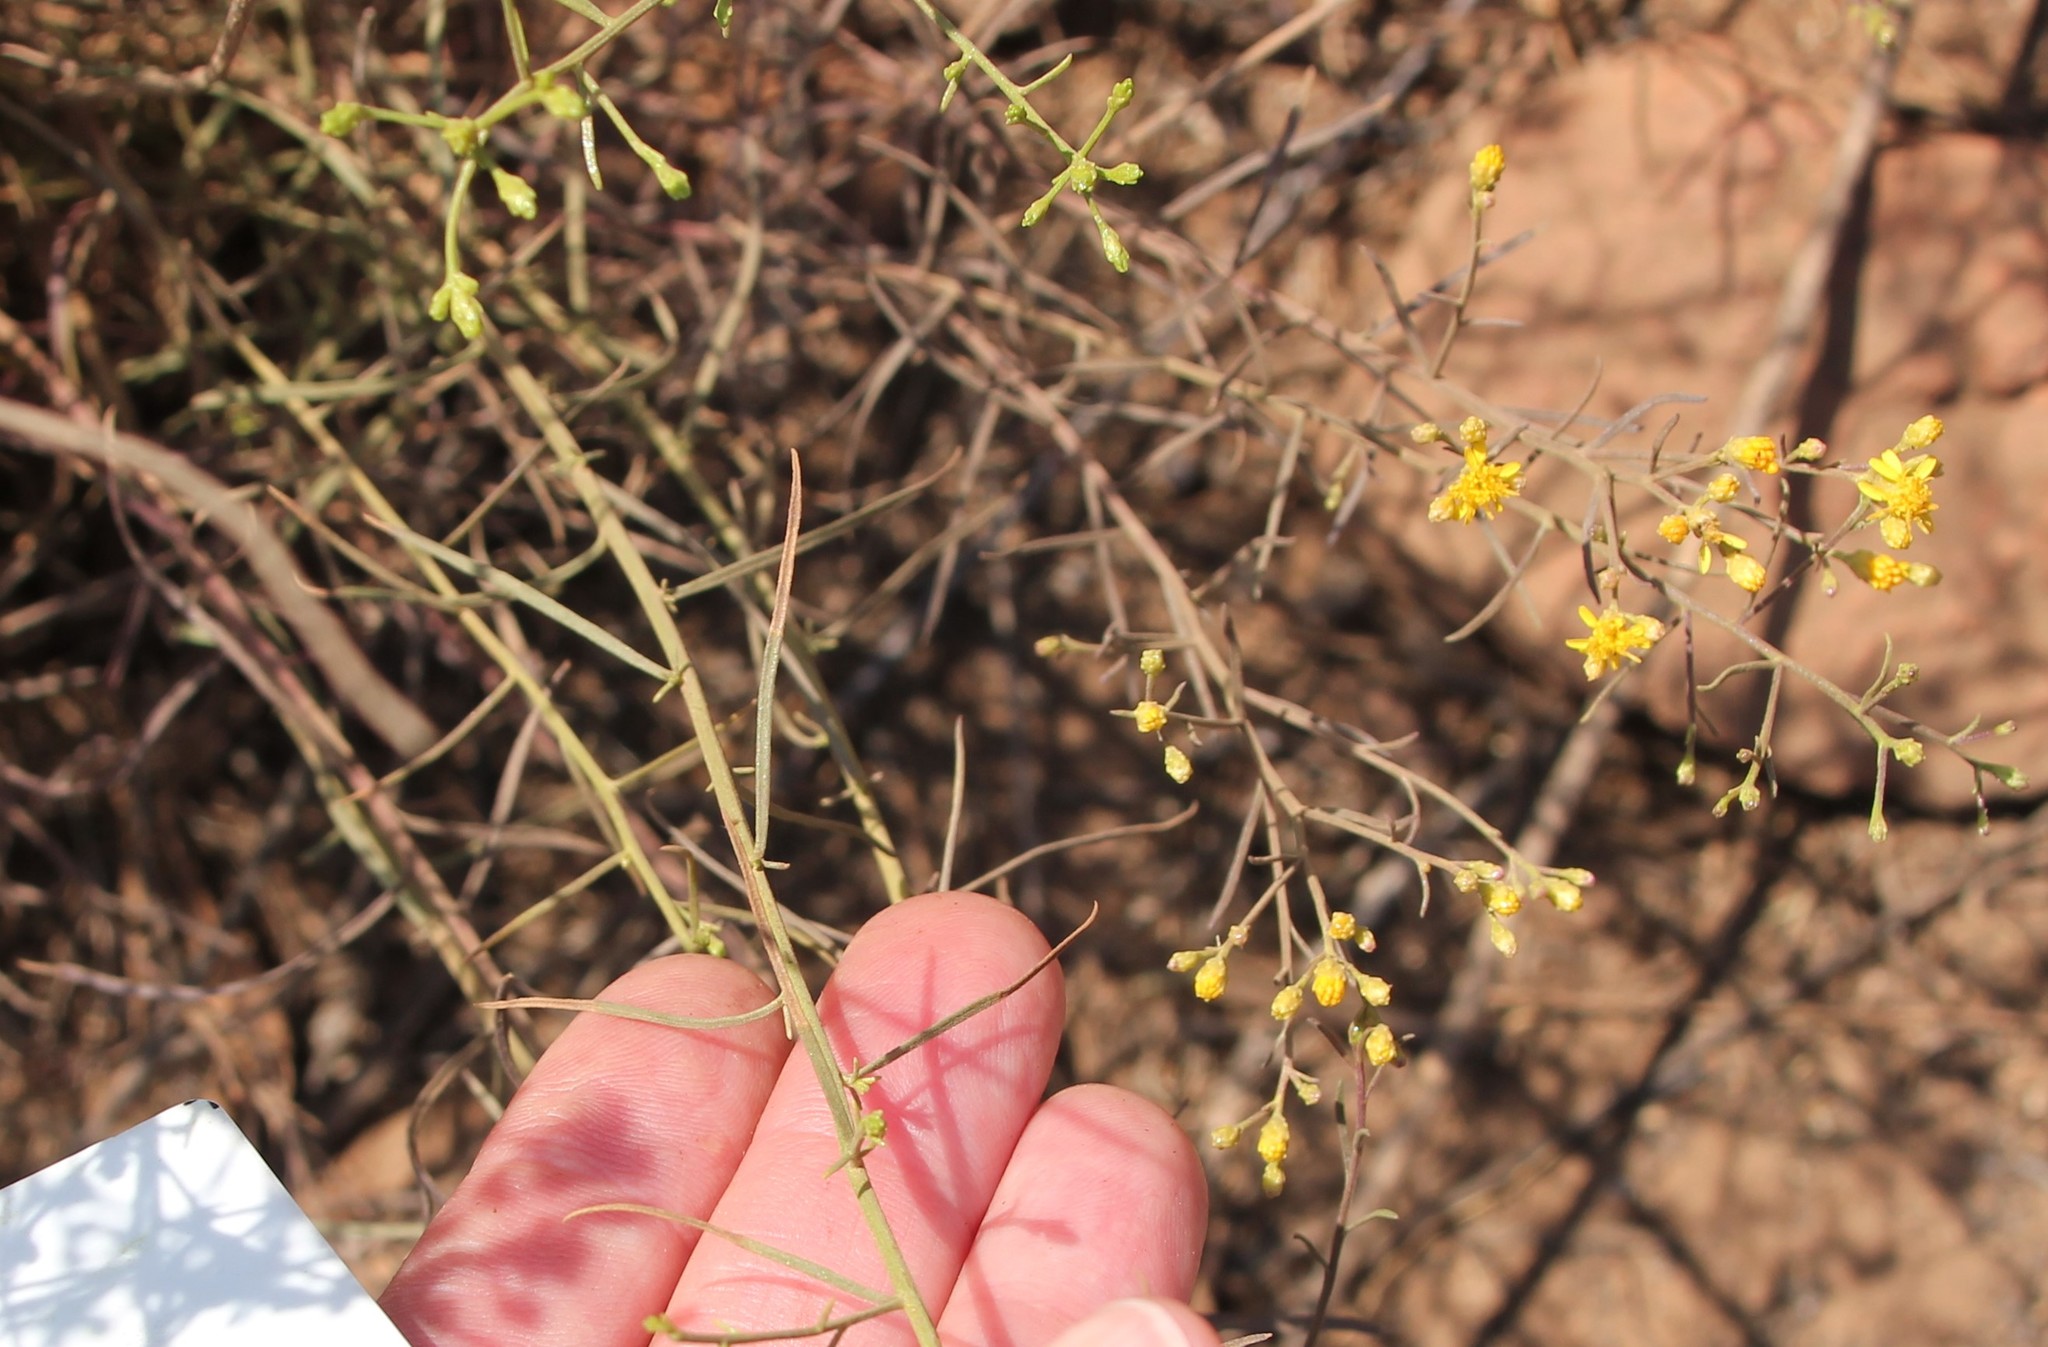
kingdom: Plantae
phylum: Tracheophyta
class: Magnoliopsida
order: Asterales
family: Asteraceae
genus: Gutierrezia
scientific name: Gutierrezia sarothrae
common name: Broom snakeweed
